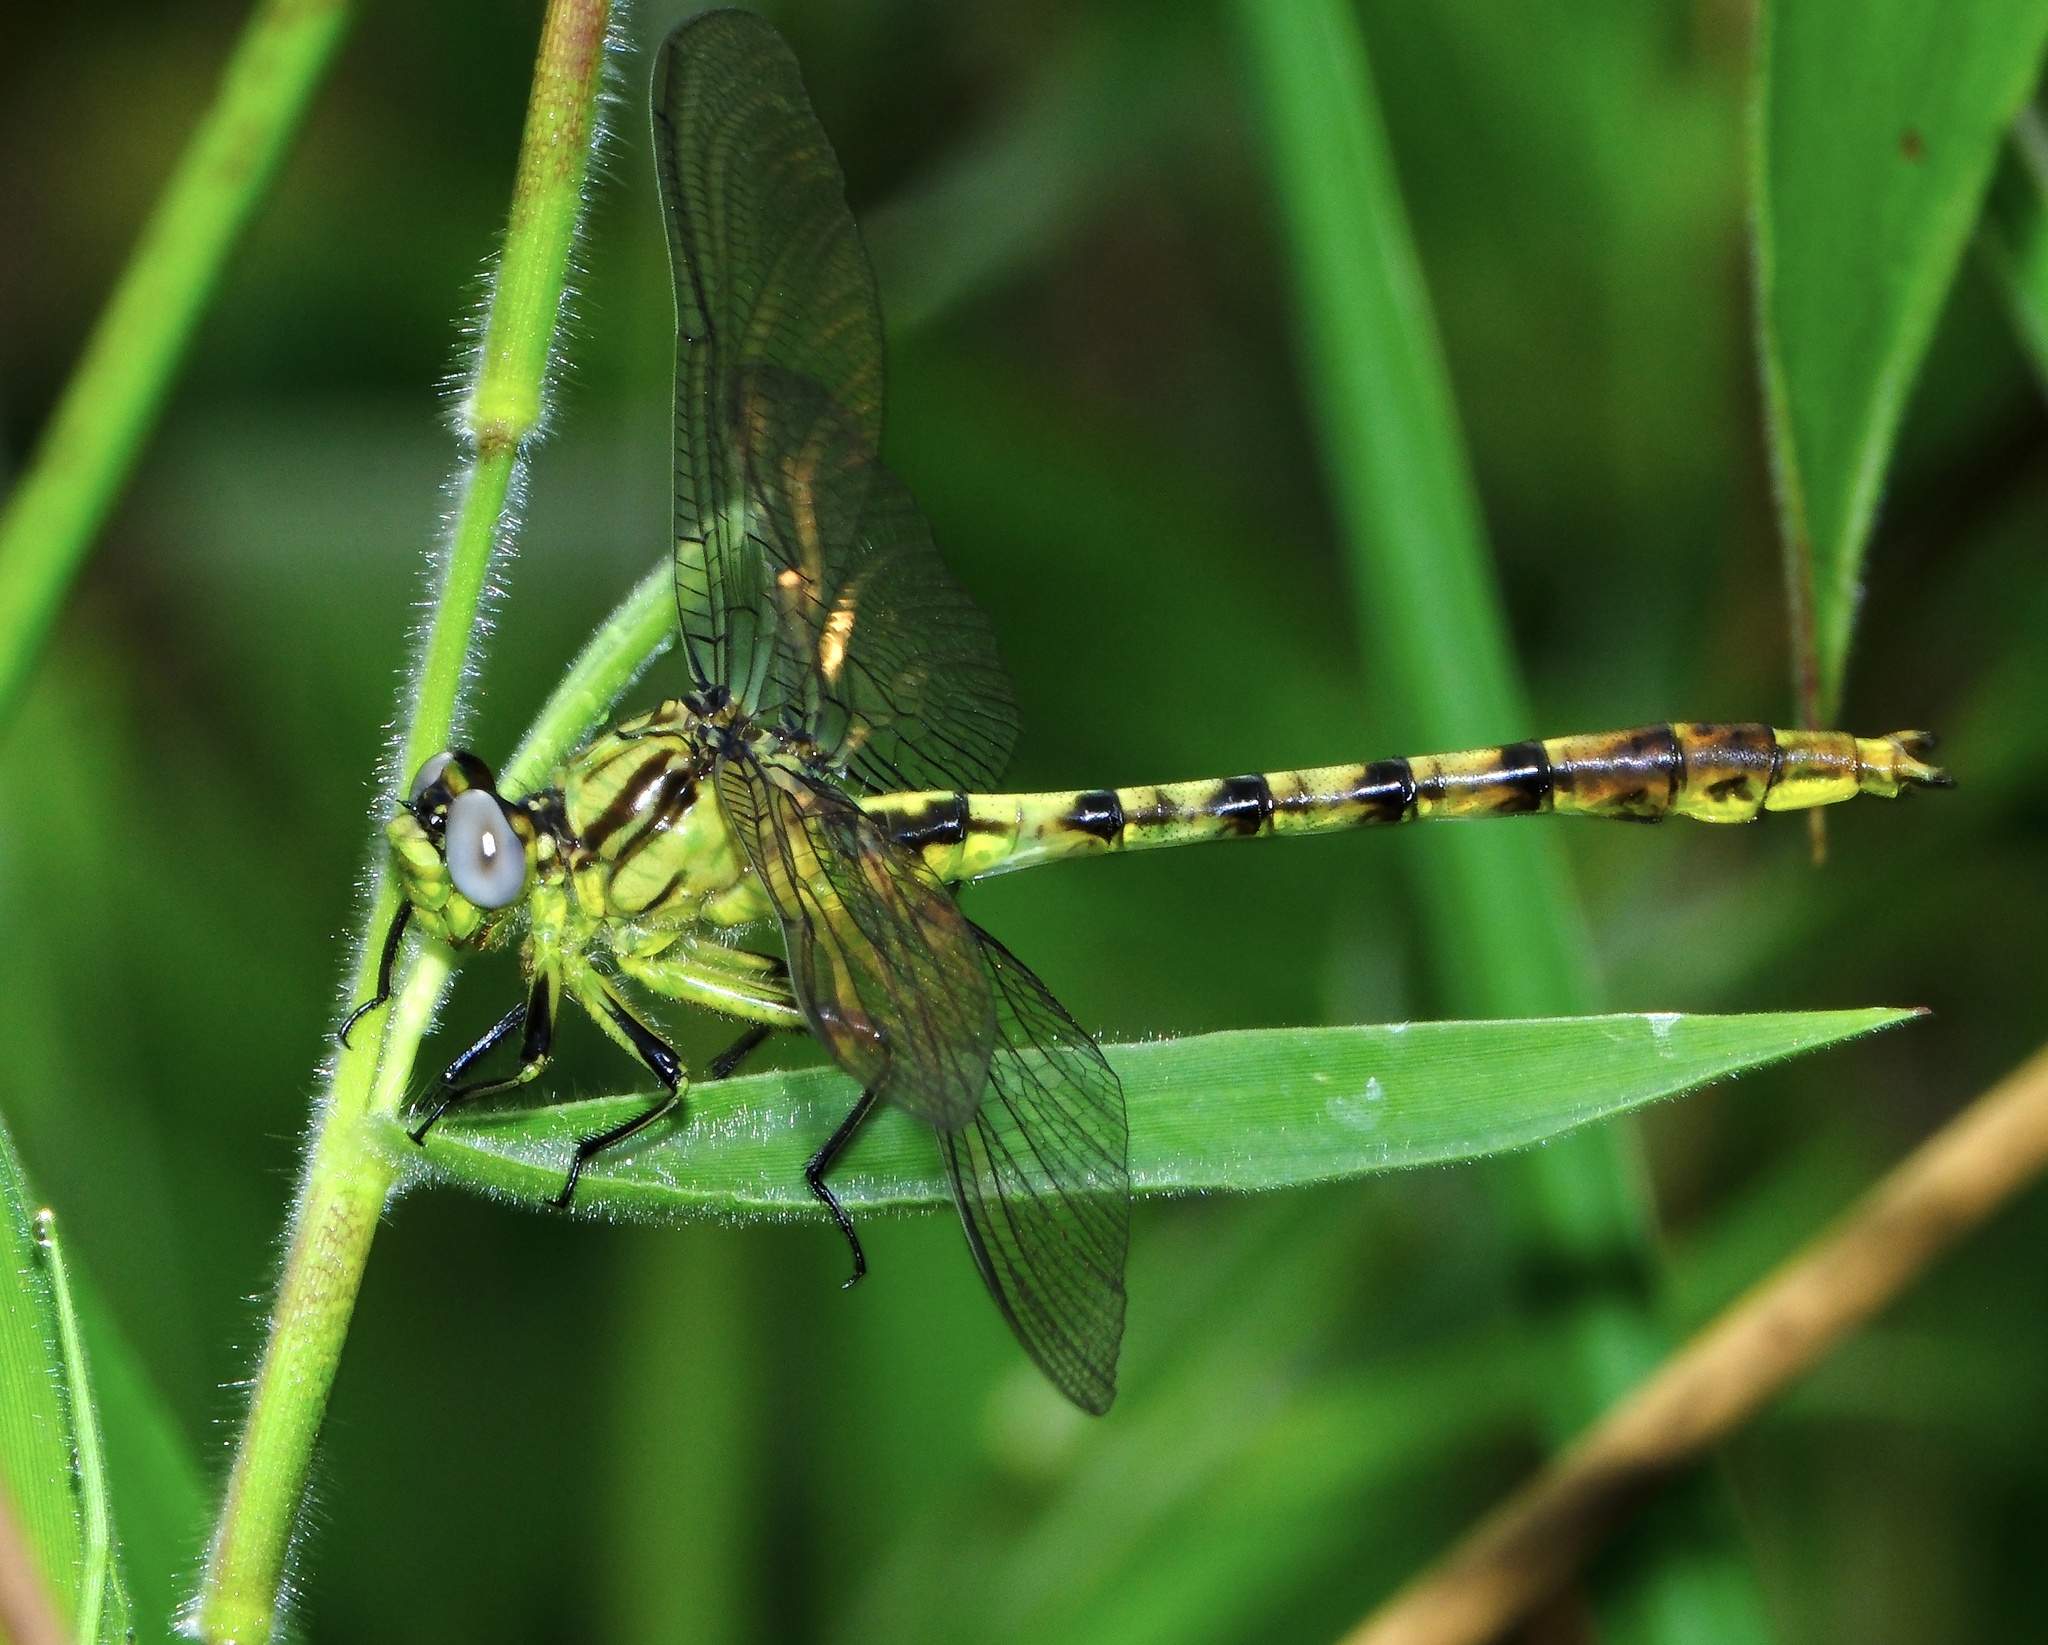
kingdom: Animalia
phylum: Arthropoda
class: Insecta
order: Odonata
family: Gomphidae
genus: Arigomphus
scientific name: Arigomphus lentulus
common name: Stillwater clubtail
